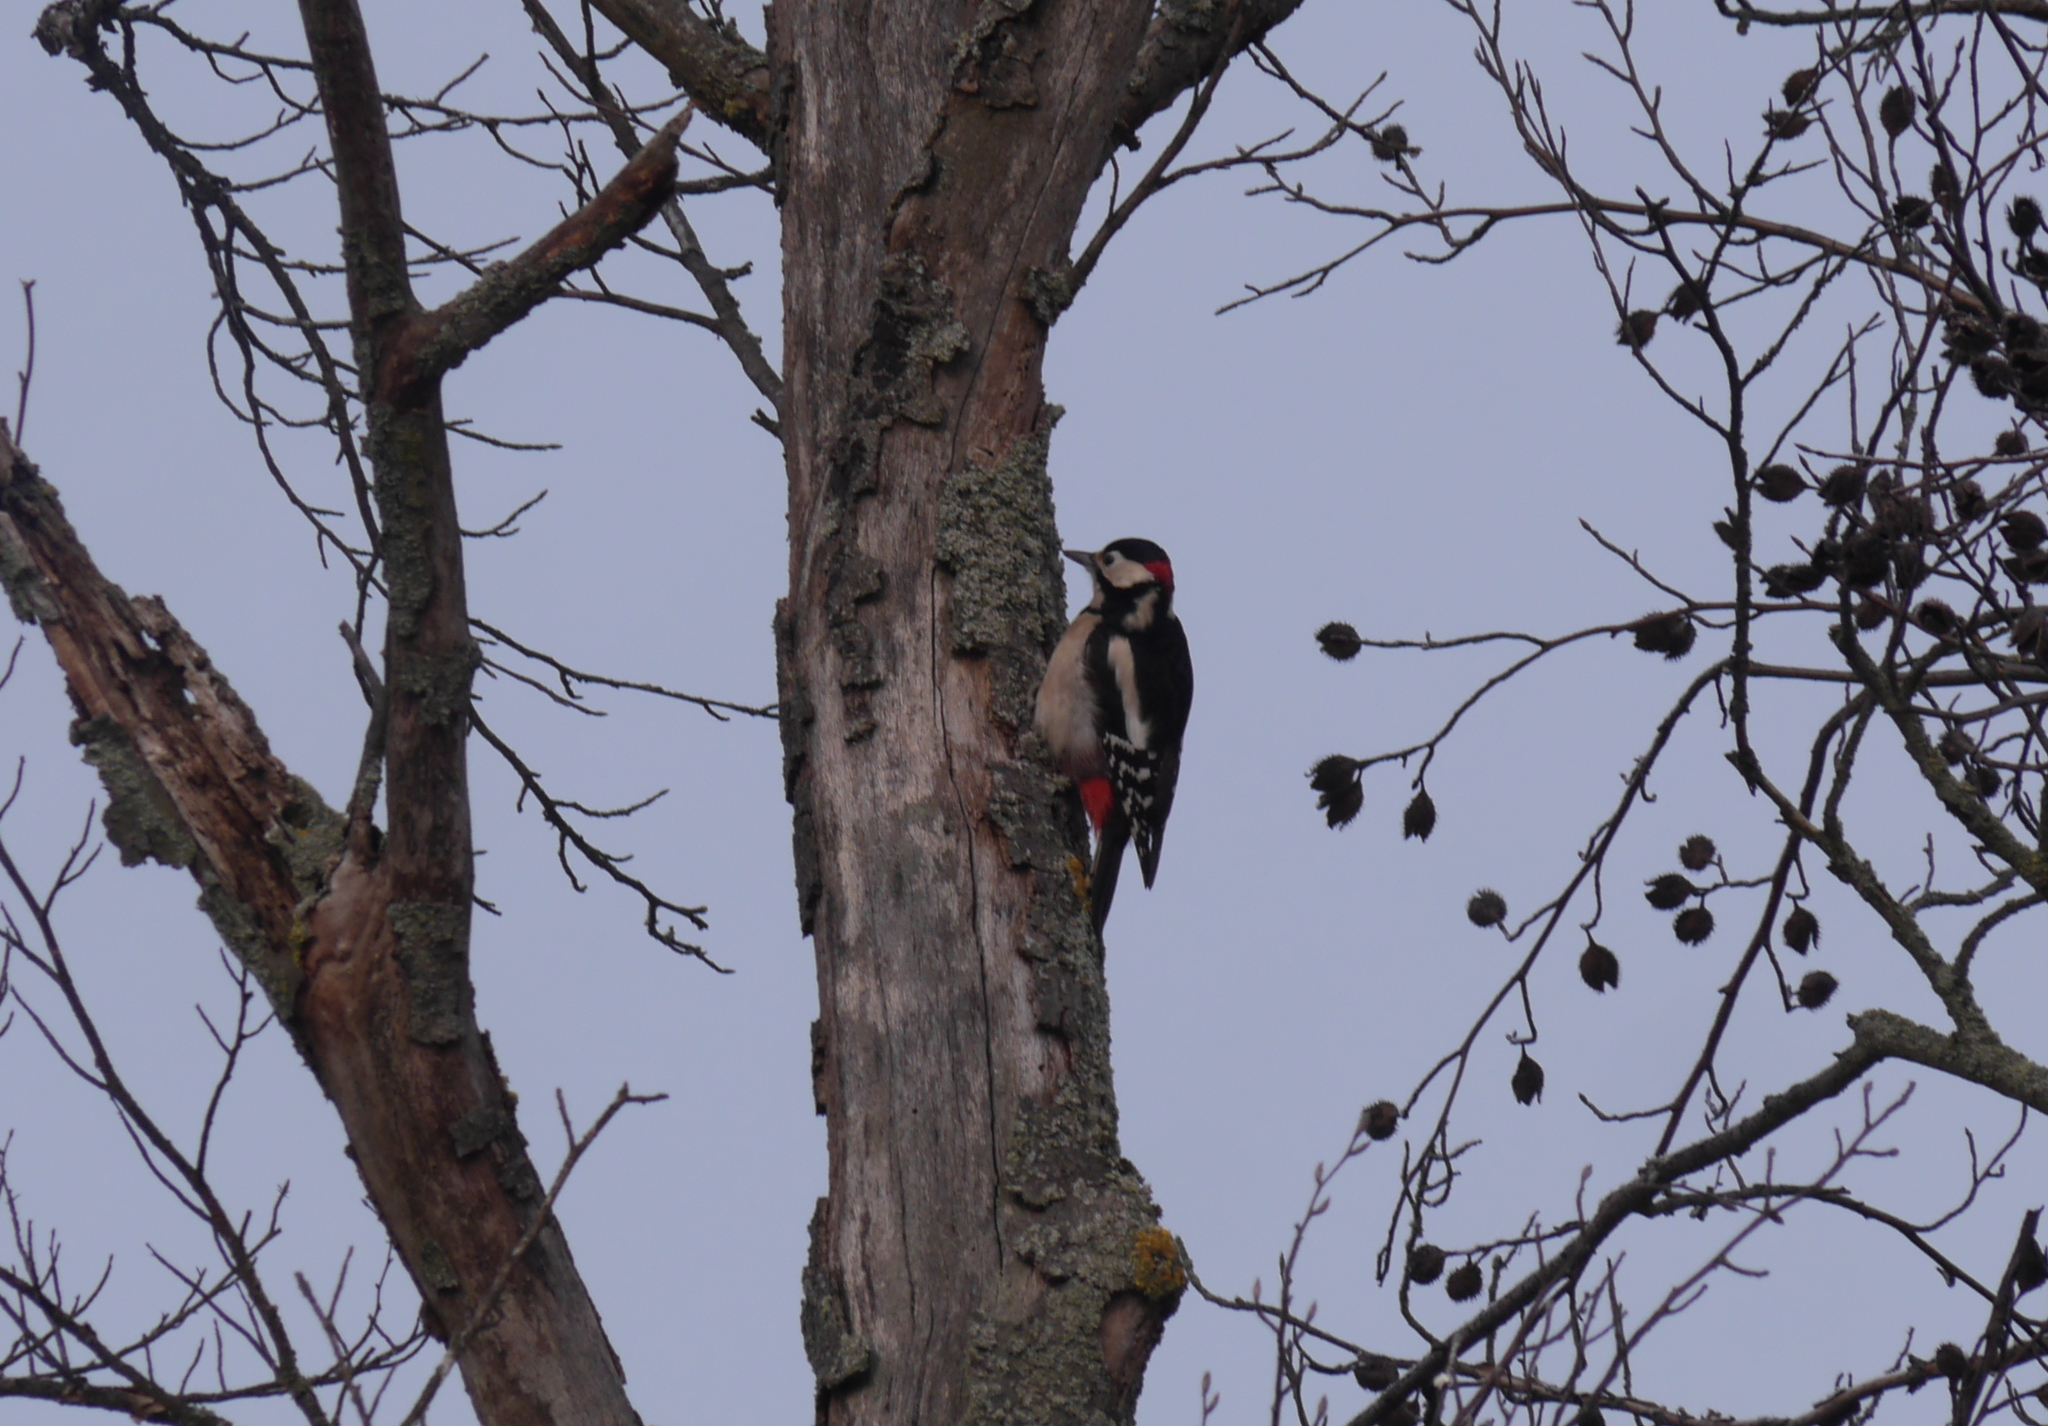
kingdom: Animalia
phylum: Chordata
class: Aves
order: Piciformes
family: Picidae
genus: Dendrocopos
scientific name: Dendrocopos major
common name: Great spotted woodpecker
